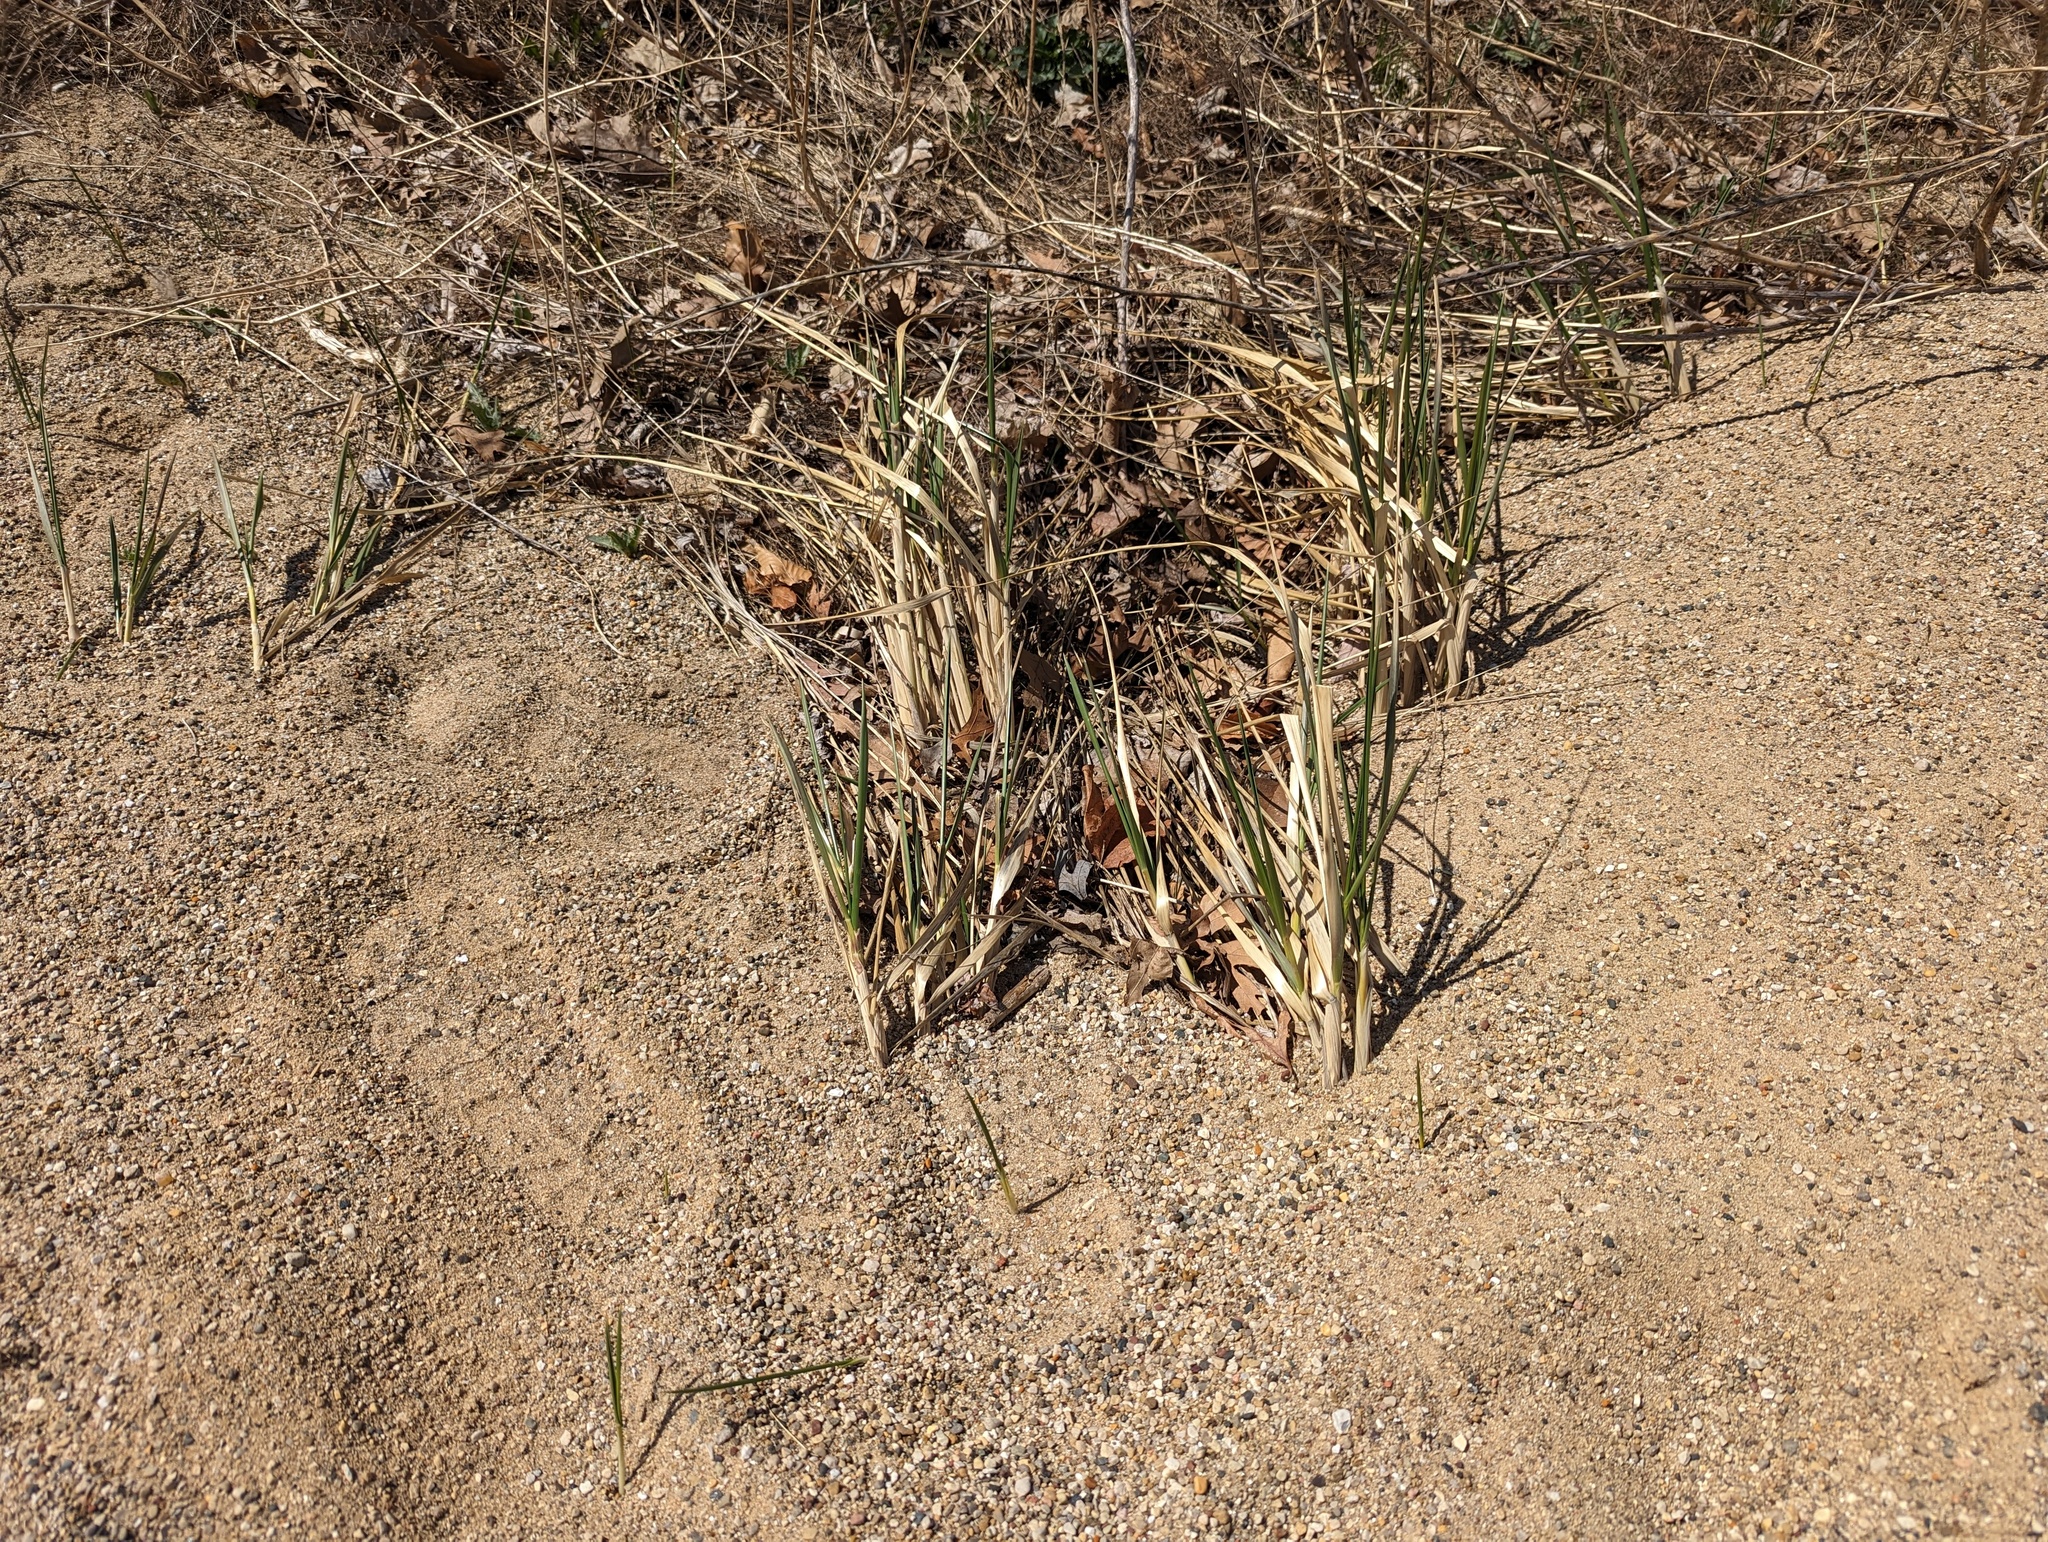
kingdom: Plantae
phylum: Tracheophyta
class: Liliopsida
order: Poales
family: Poaceae
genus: Calamagrostis
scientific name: Calamagrostis breviligulata
